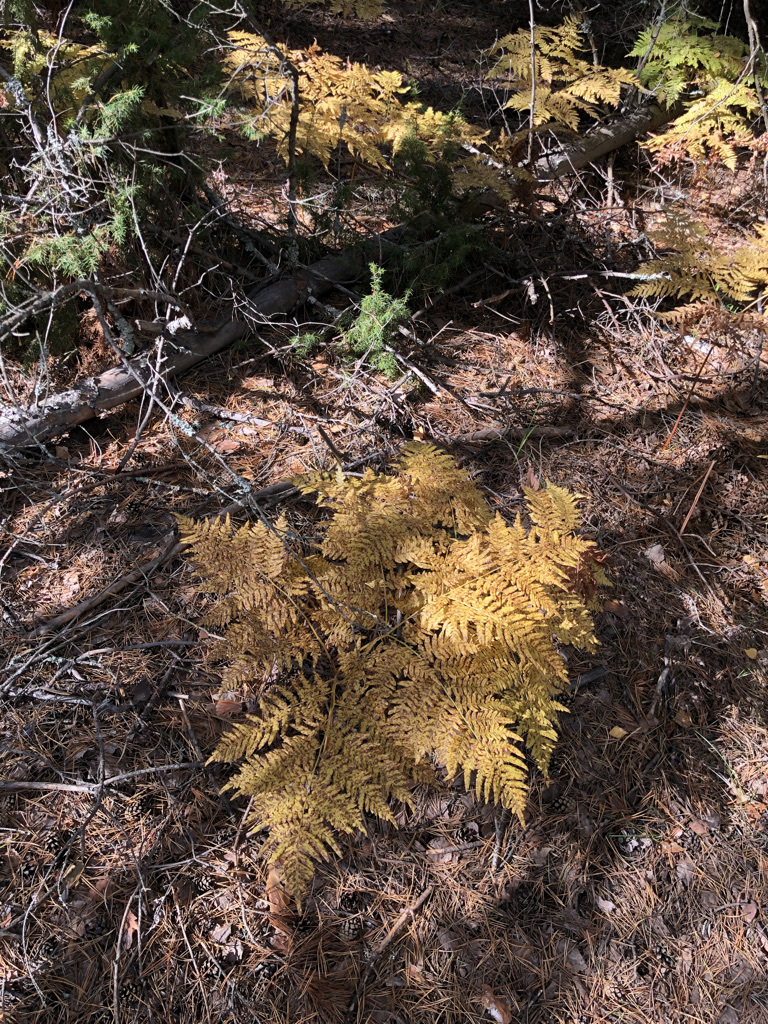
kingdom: Plantae
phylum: Tracheophyta
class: Polypodiopsida
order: Polypodiales
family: Dennstaedtiaceae
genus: Pteridium
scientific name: Pteridium aquilinum
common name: Bracken
